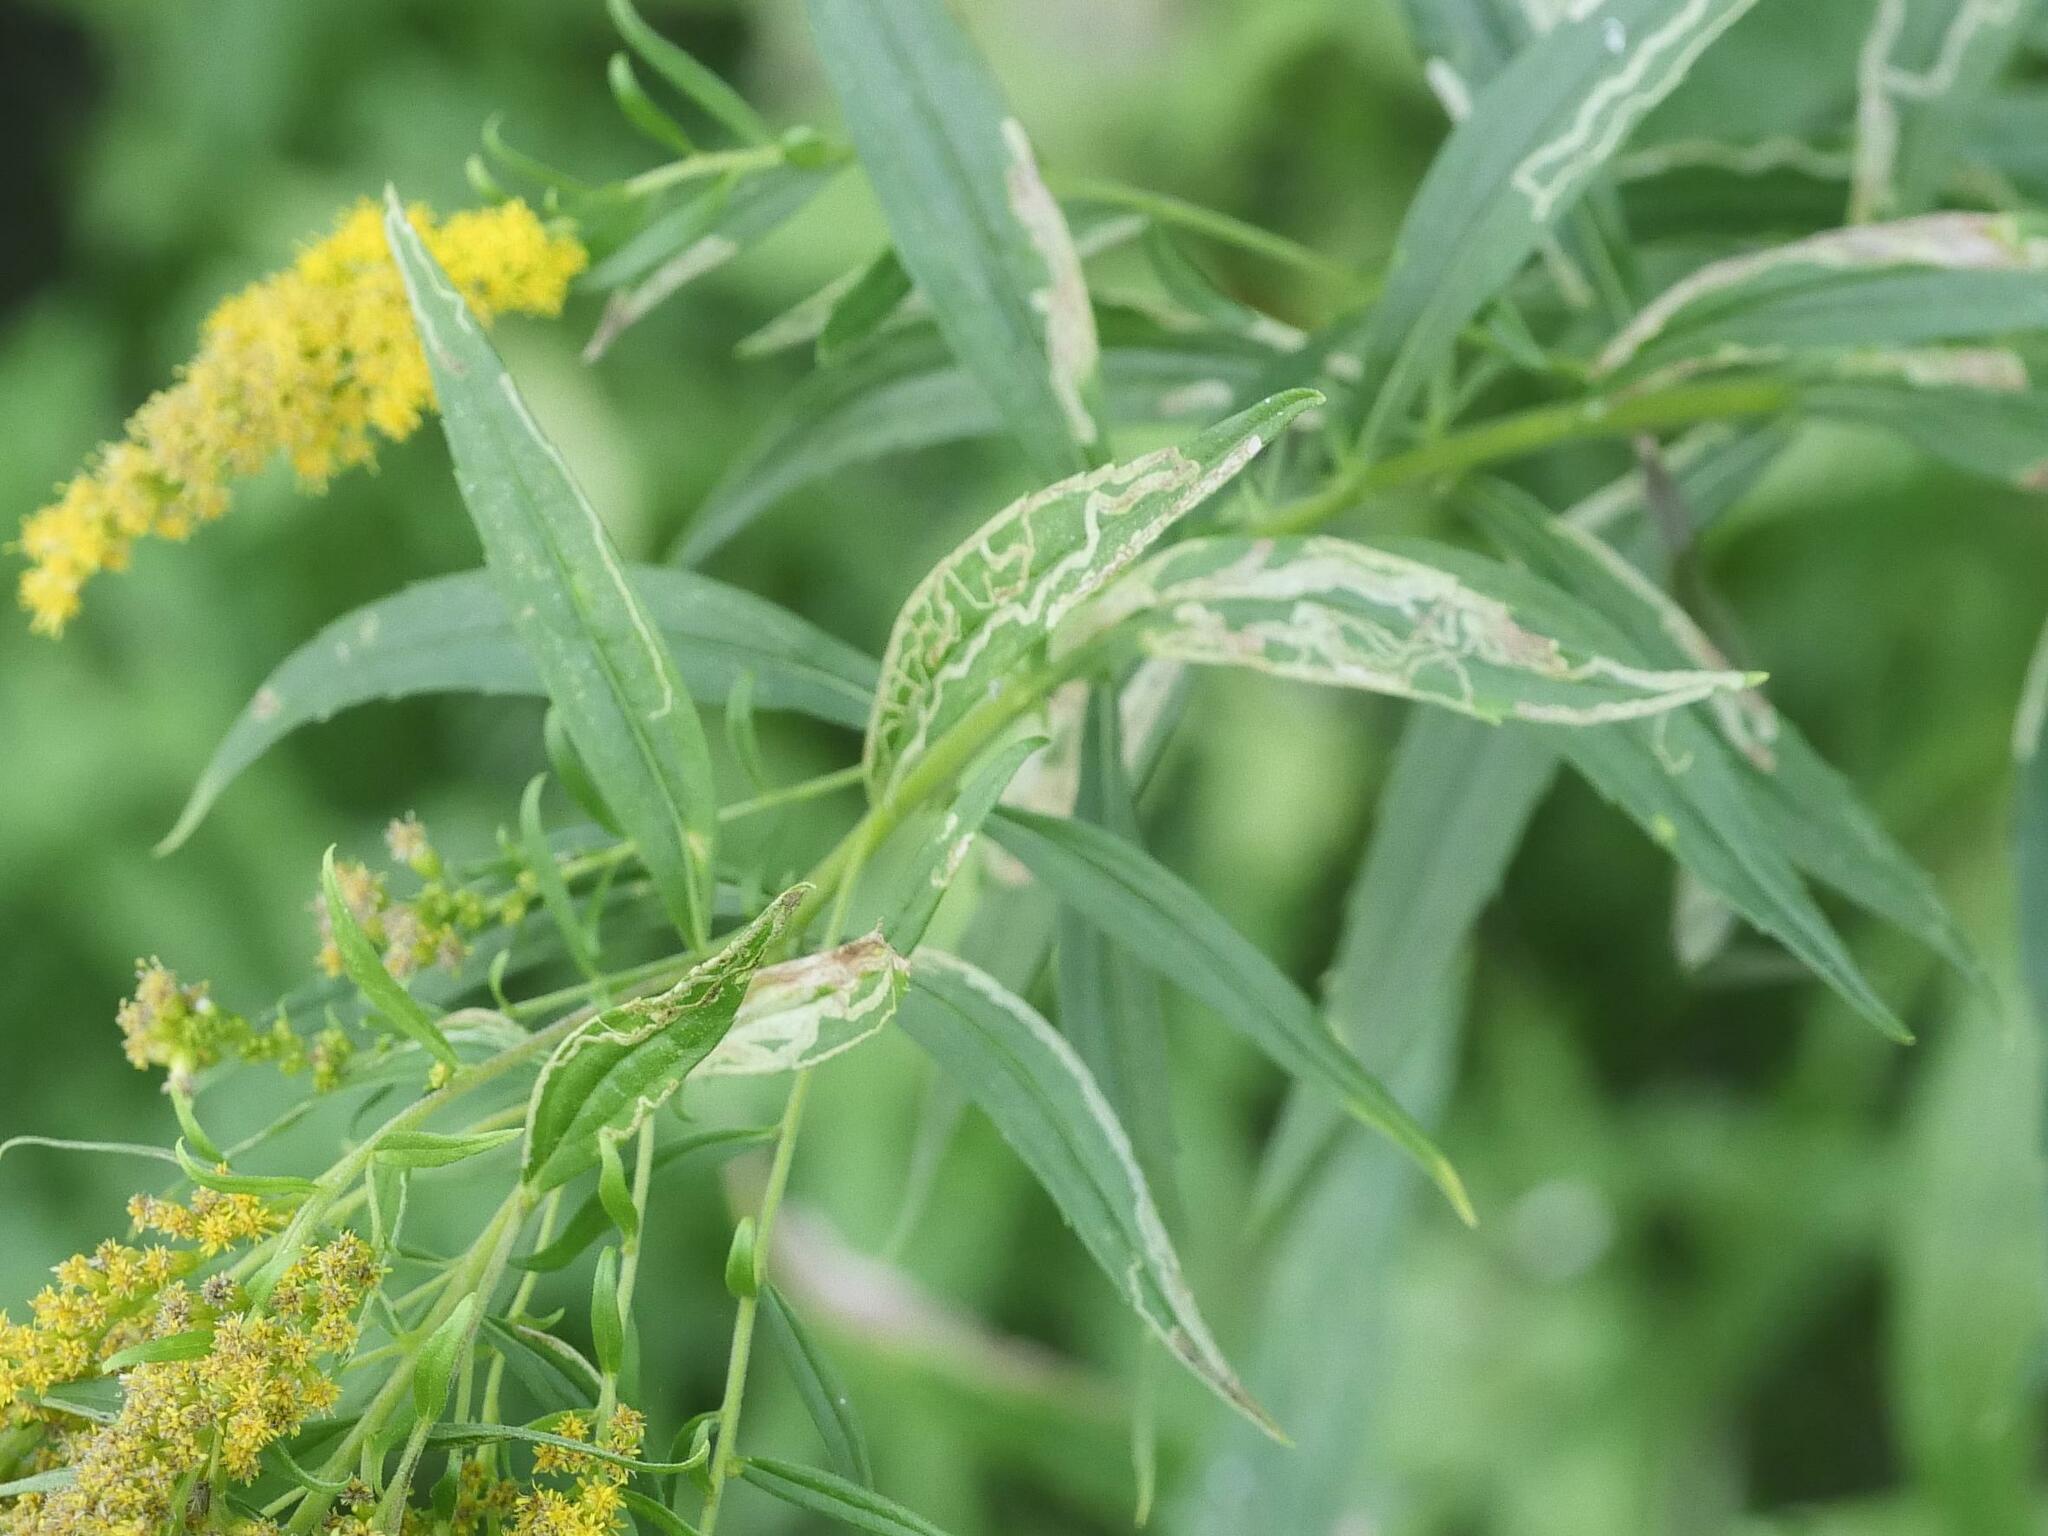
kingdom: Animalia
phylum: Arthropoda
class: Insecta
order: Diptera
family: Agromyzidae
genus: Ophiomyia
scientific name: Ophiomyia maura
